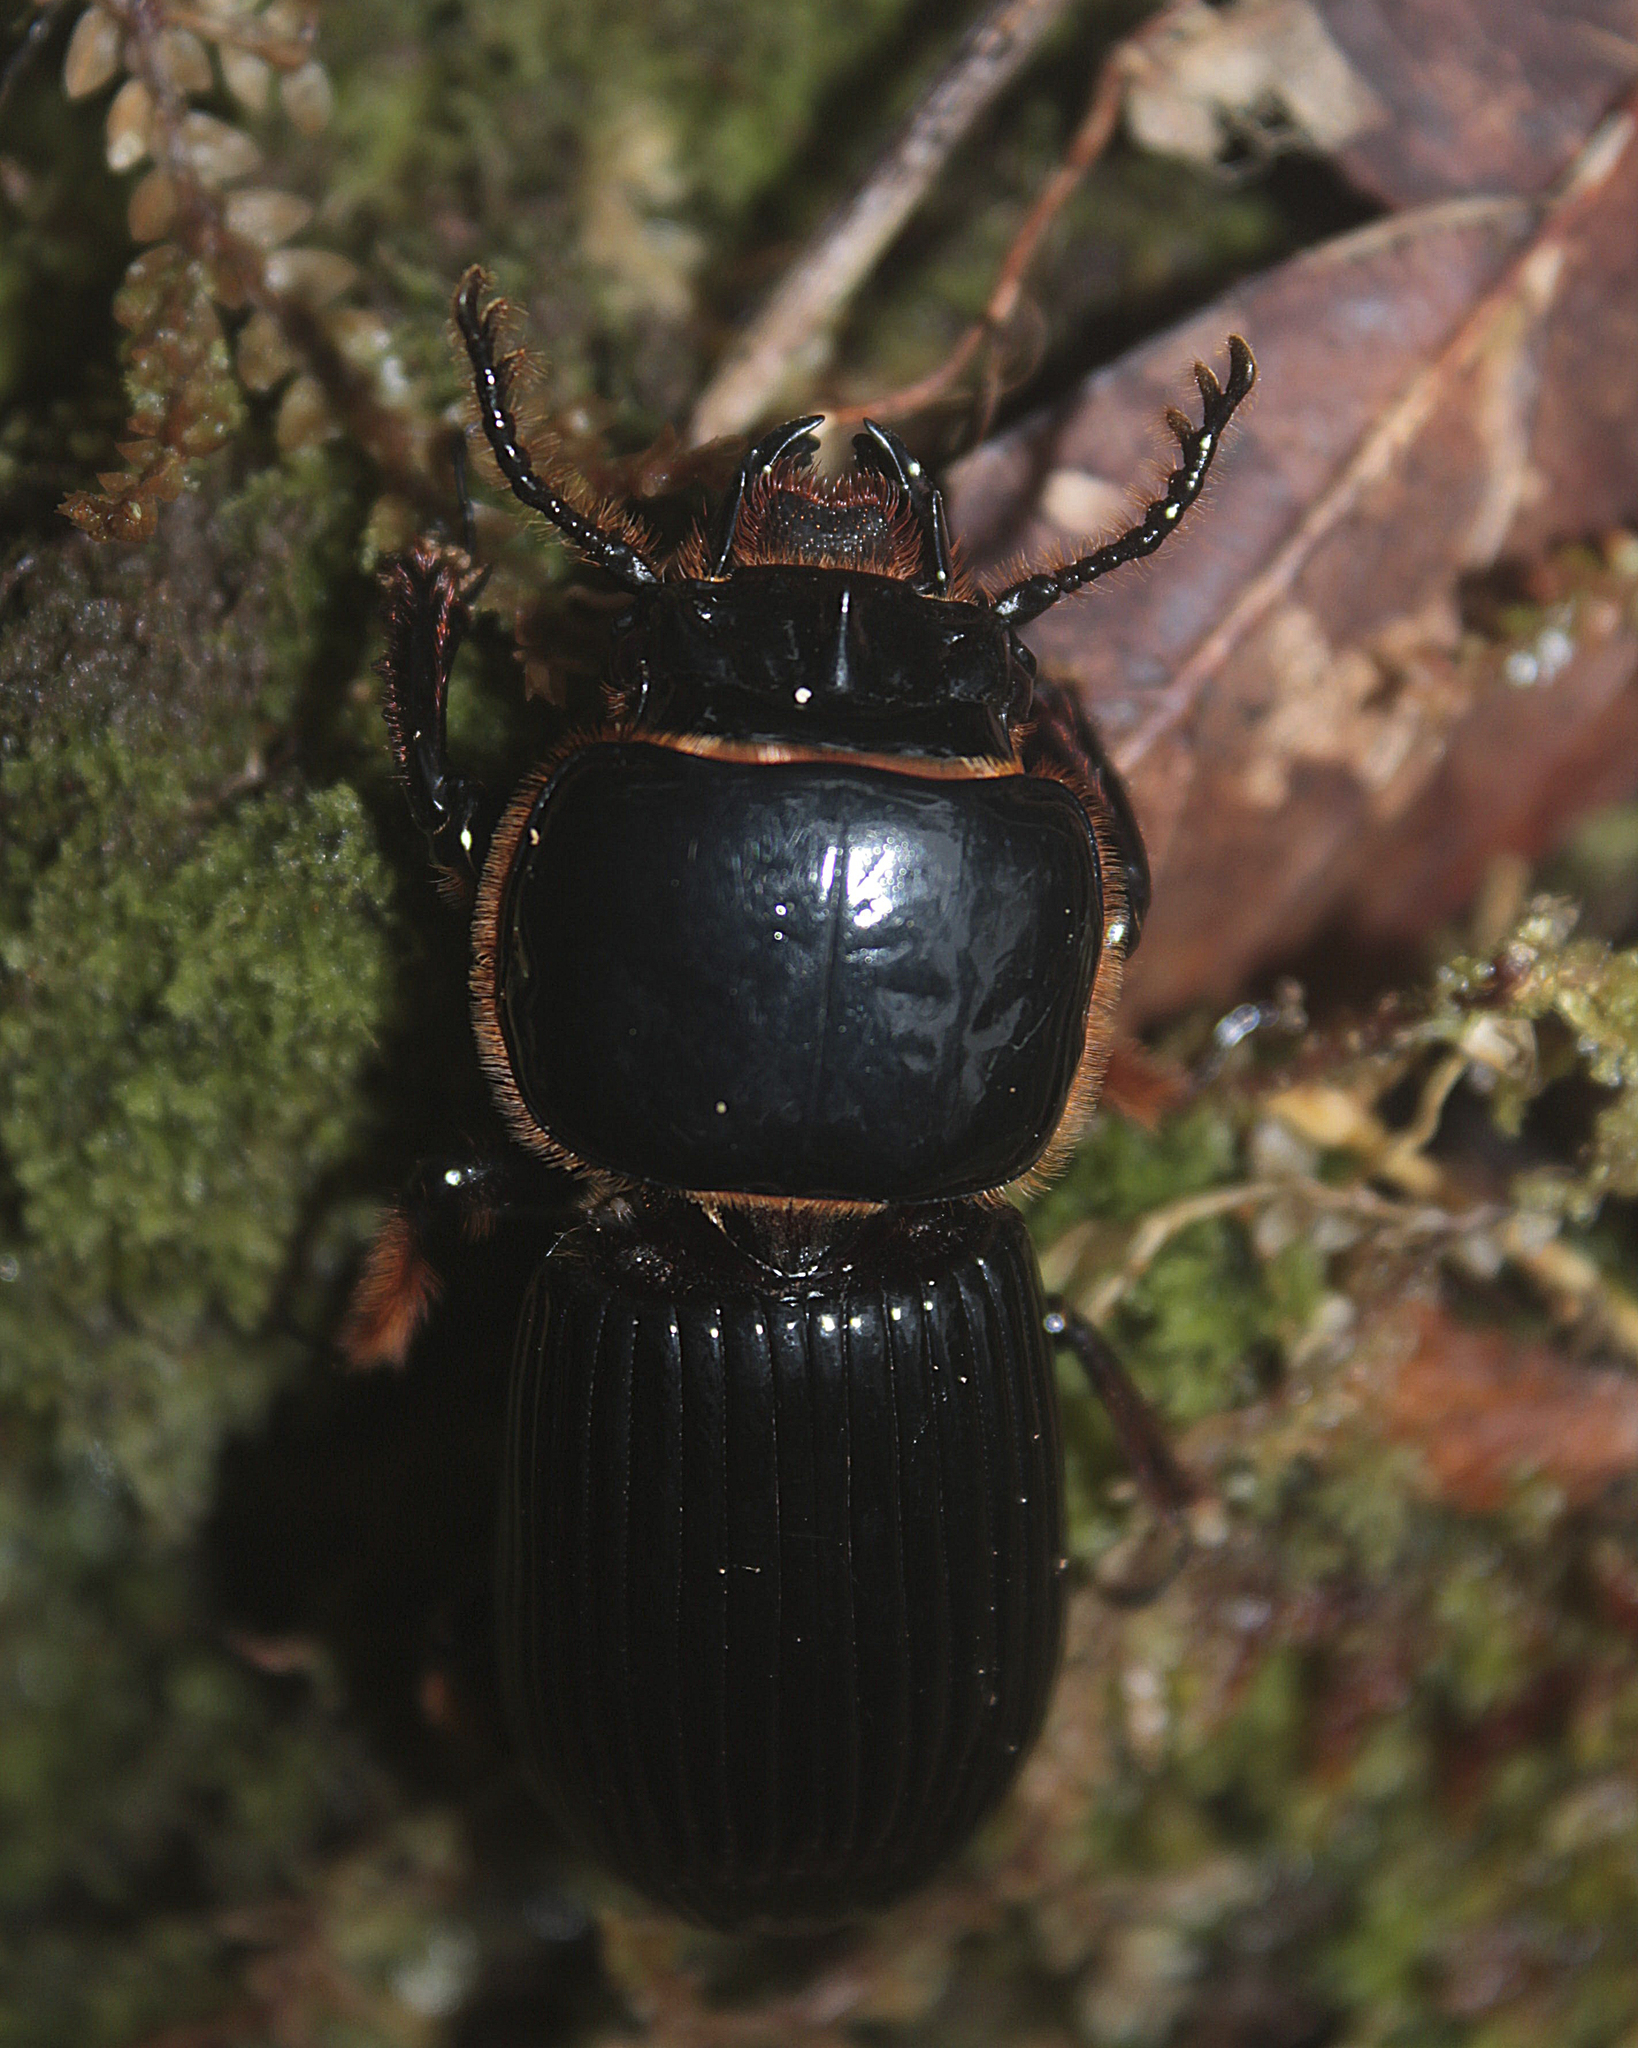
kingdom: Animalia
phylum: Arthropoda
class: Insecta
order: Coleoptera
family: Passalidae
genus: Veturius
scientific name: Veturius impressus
